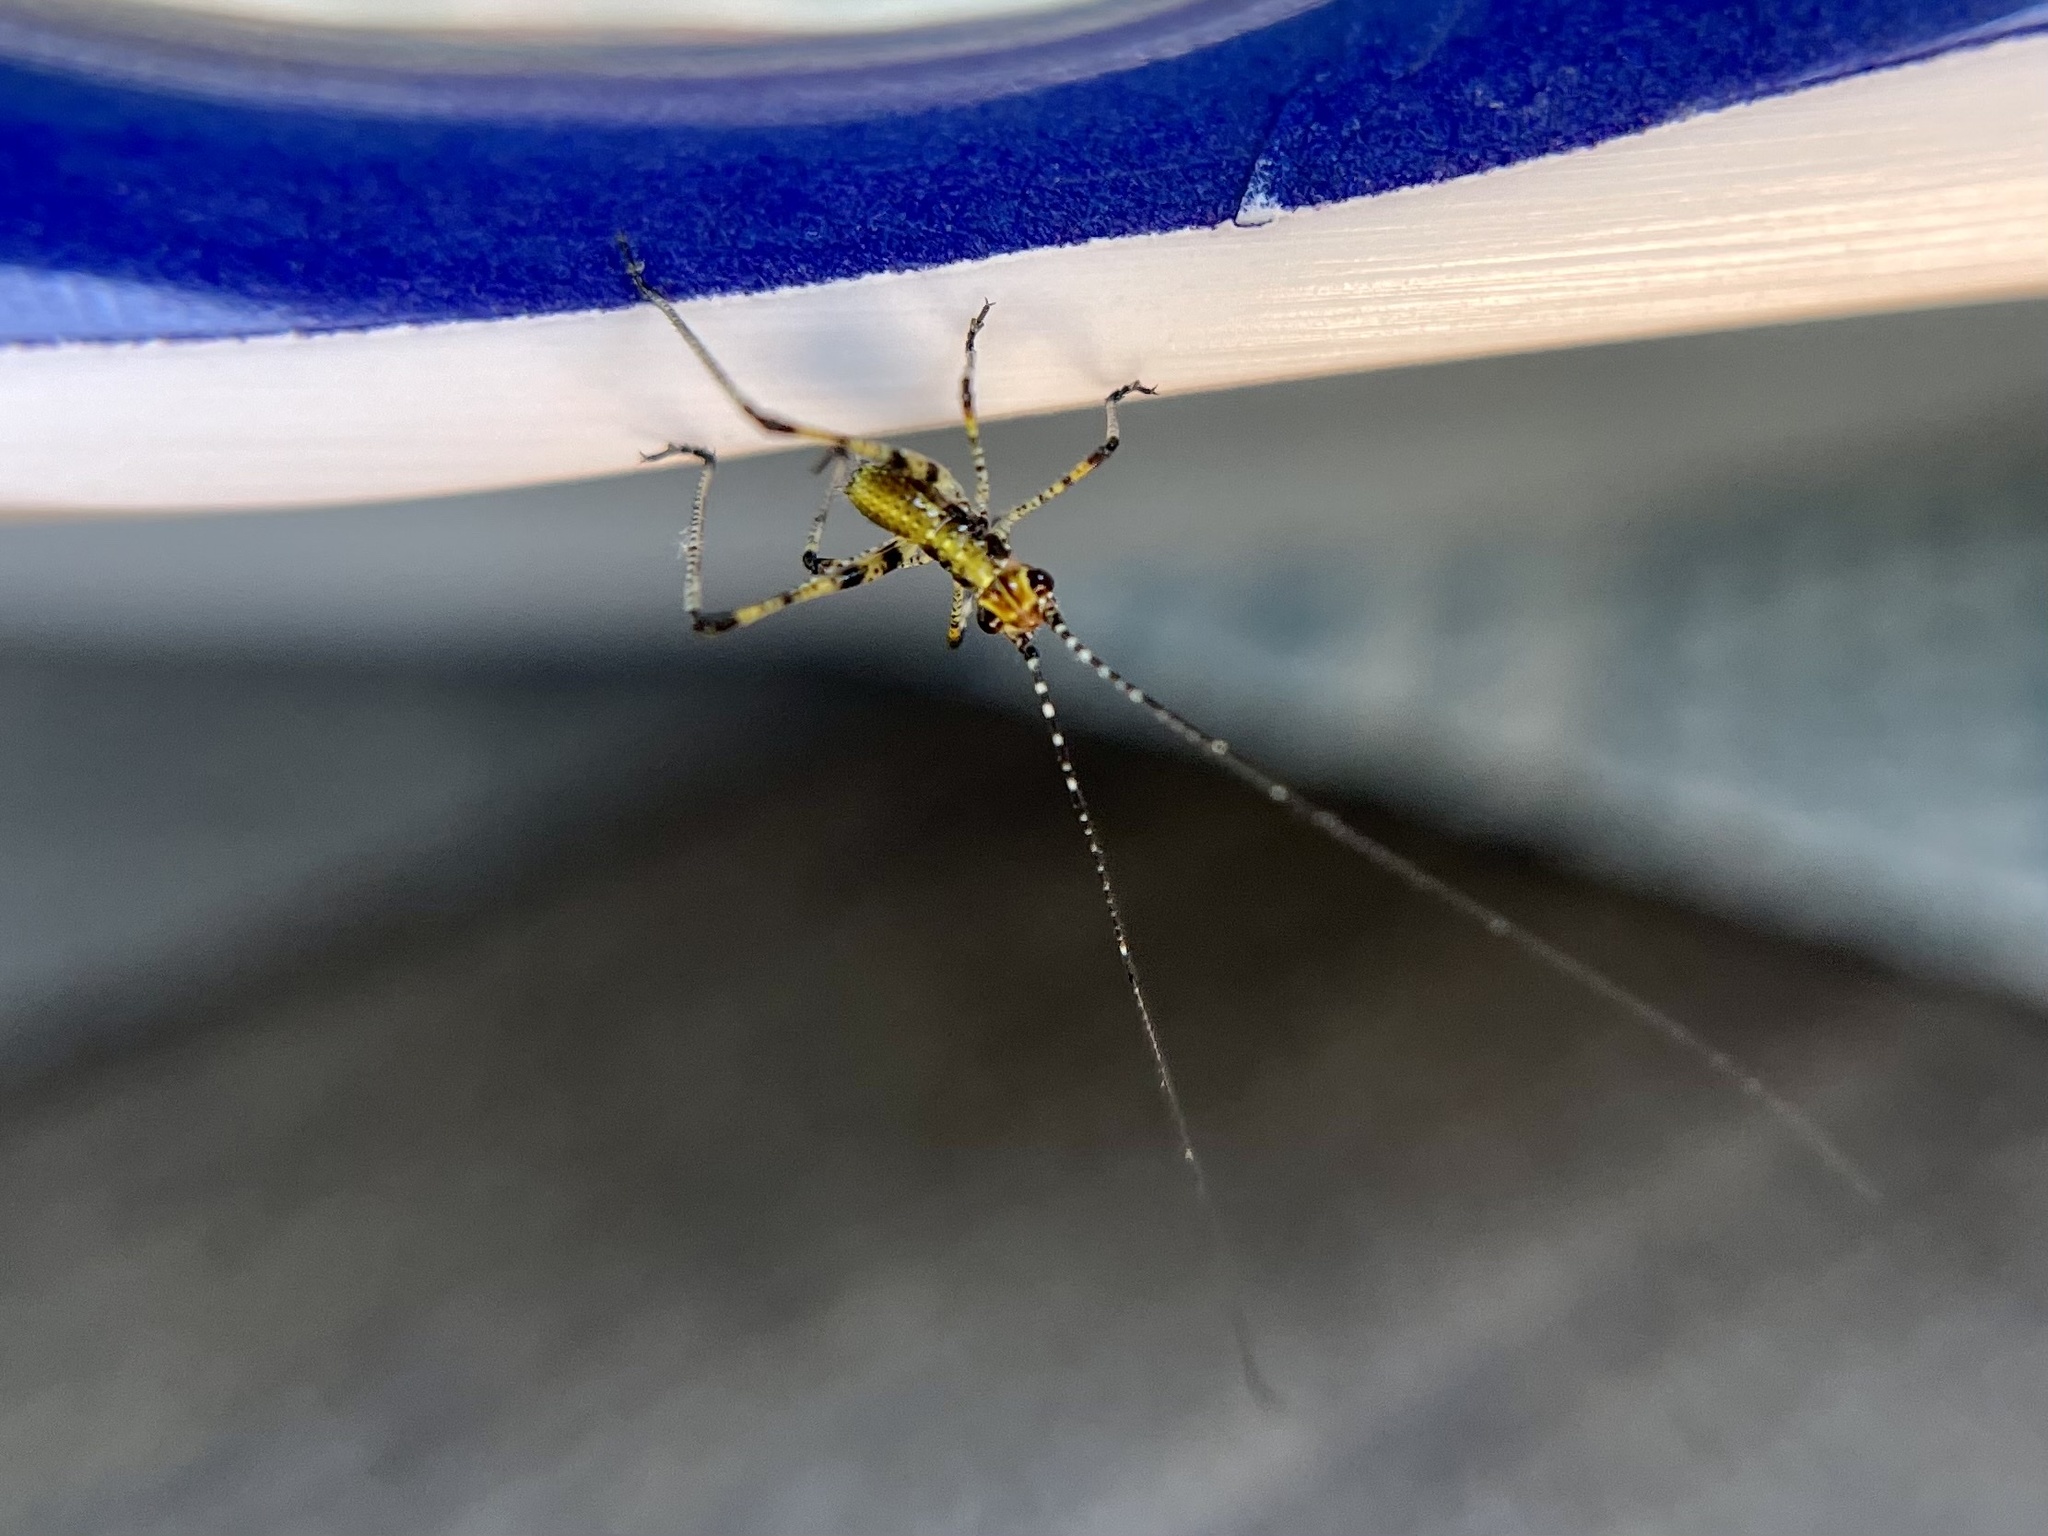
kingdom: Animalia
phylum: Arthropoda
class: Insecta
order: Orthoptera
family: Tettigoniidae
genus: Phaneroptera
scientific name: Phaneroptera nana
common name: Southern sickle bush-cricket
